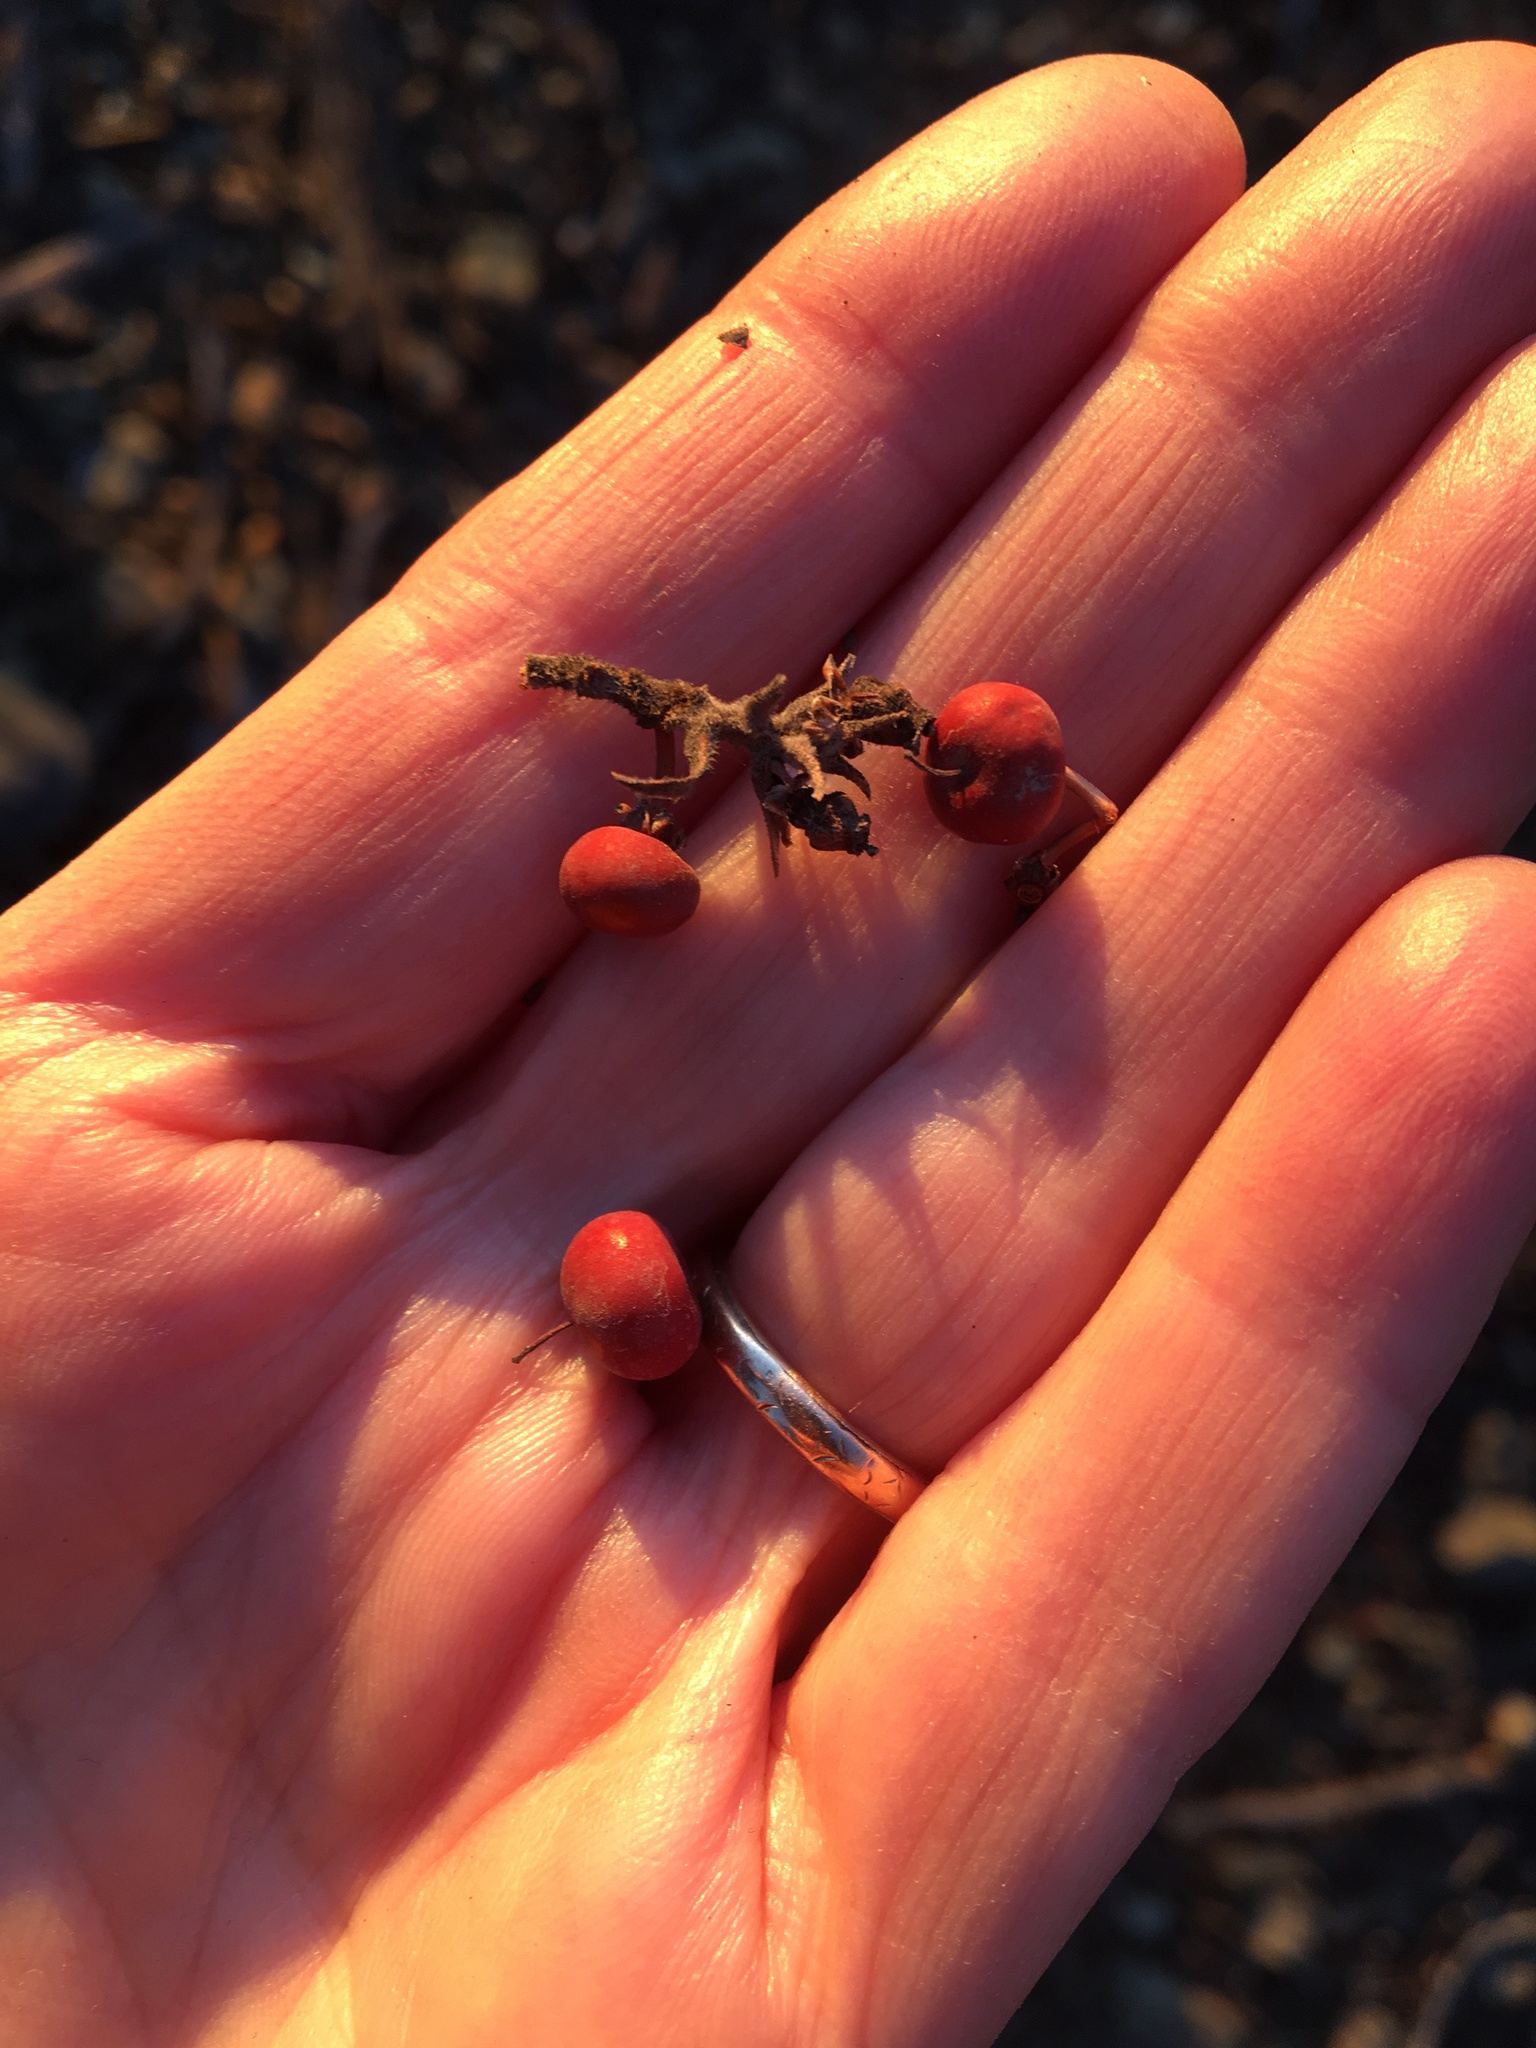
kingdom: Plantae
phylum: Tracheophyta
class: Magnoliopsida
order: Ericales
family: Ericaceae
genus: Arctostaphylos
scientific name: Arctostaphylos obispoensis
